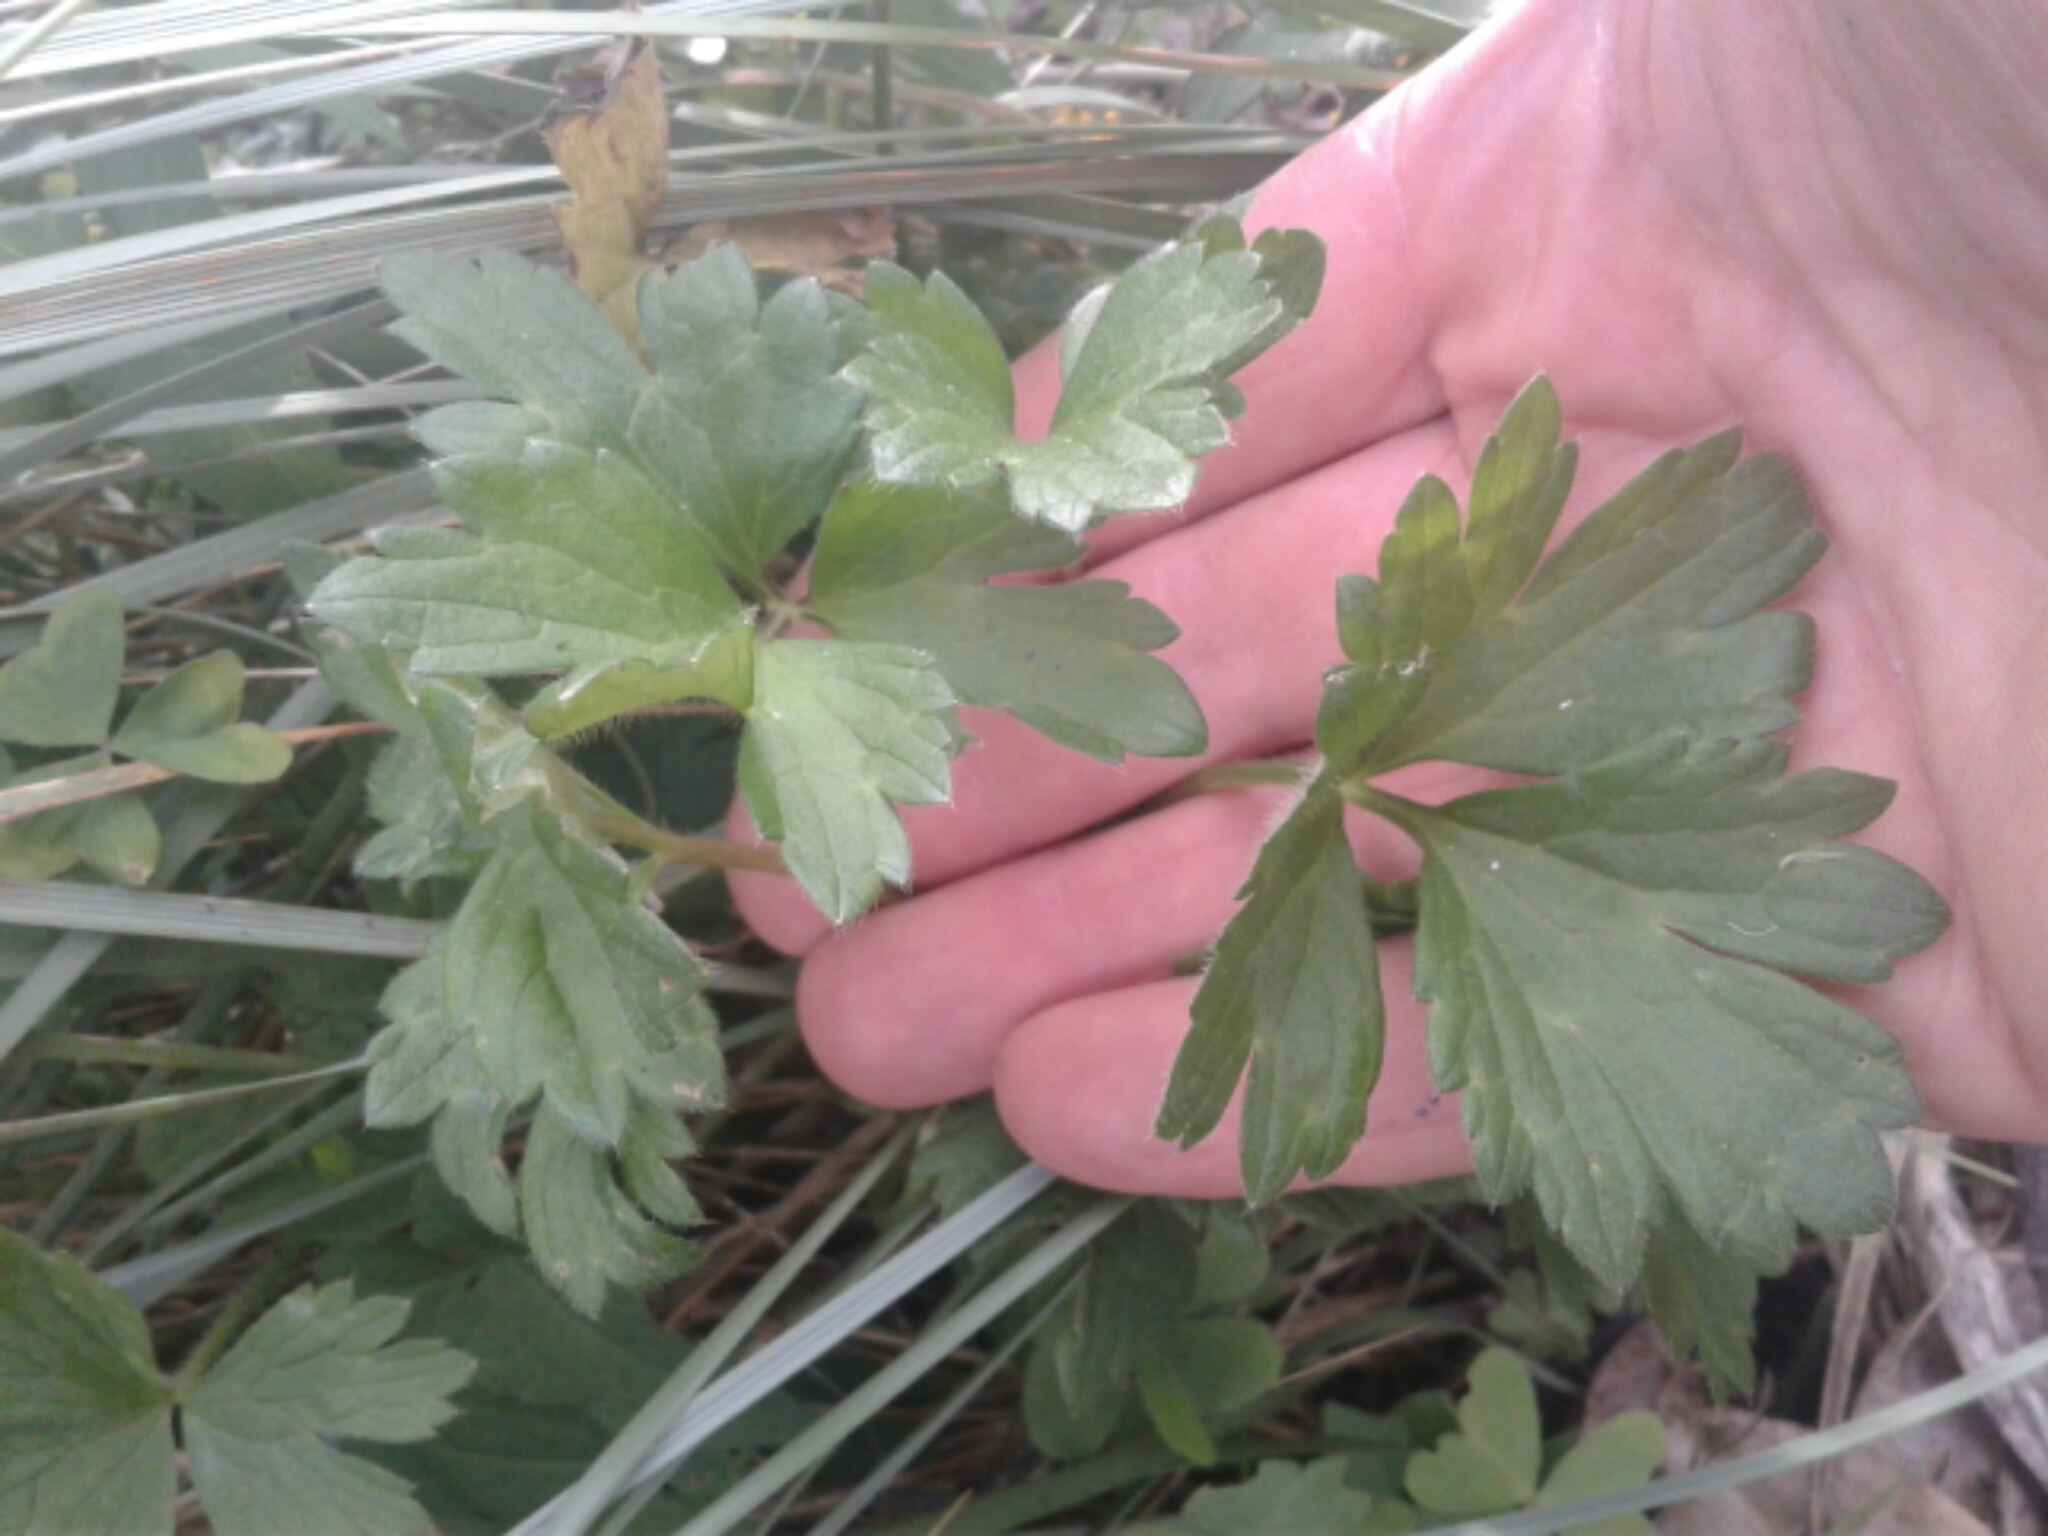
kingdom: Plantae
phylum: Tracheophyta
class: Magnoliopsida
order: Ranunculales
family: Ranunculaceae
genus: Ranunculus
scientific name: Ranunculus repens
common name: Creeping buttercup
